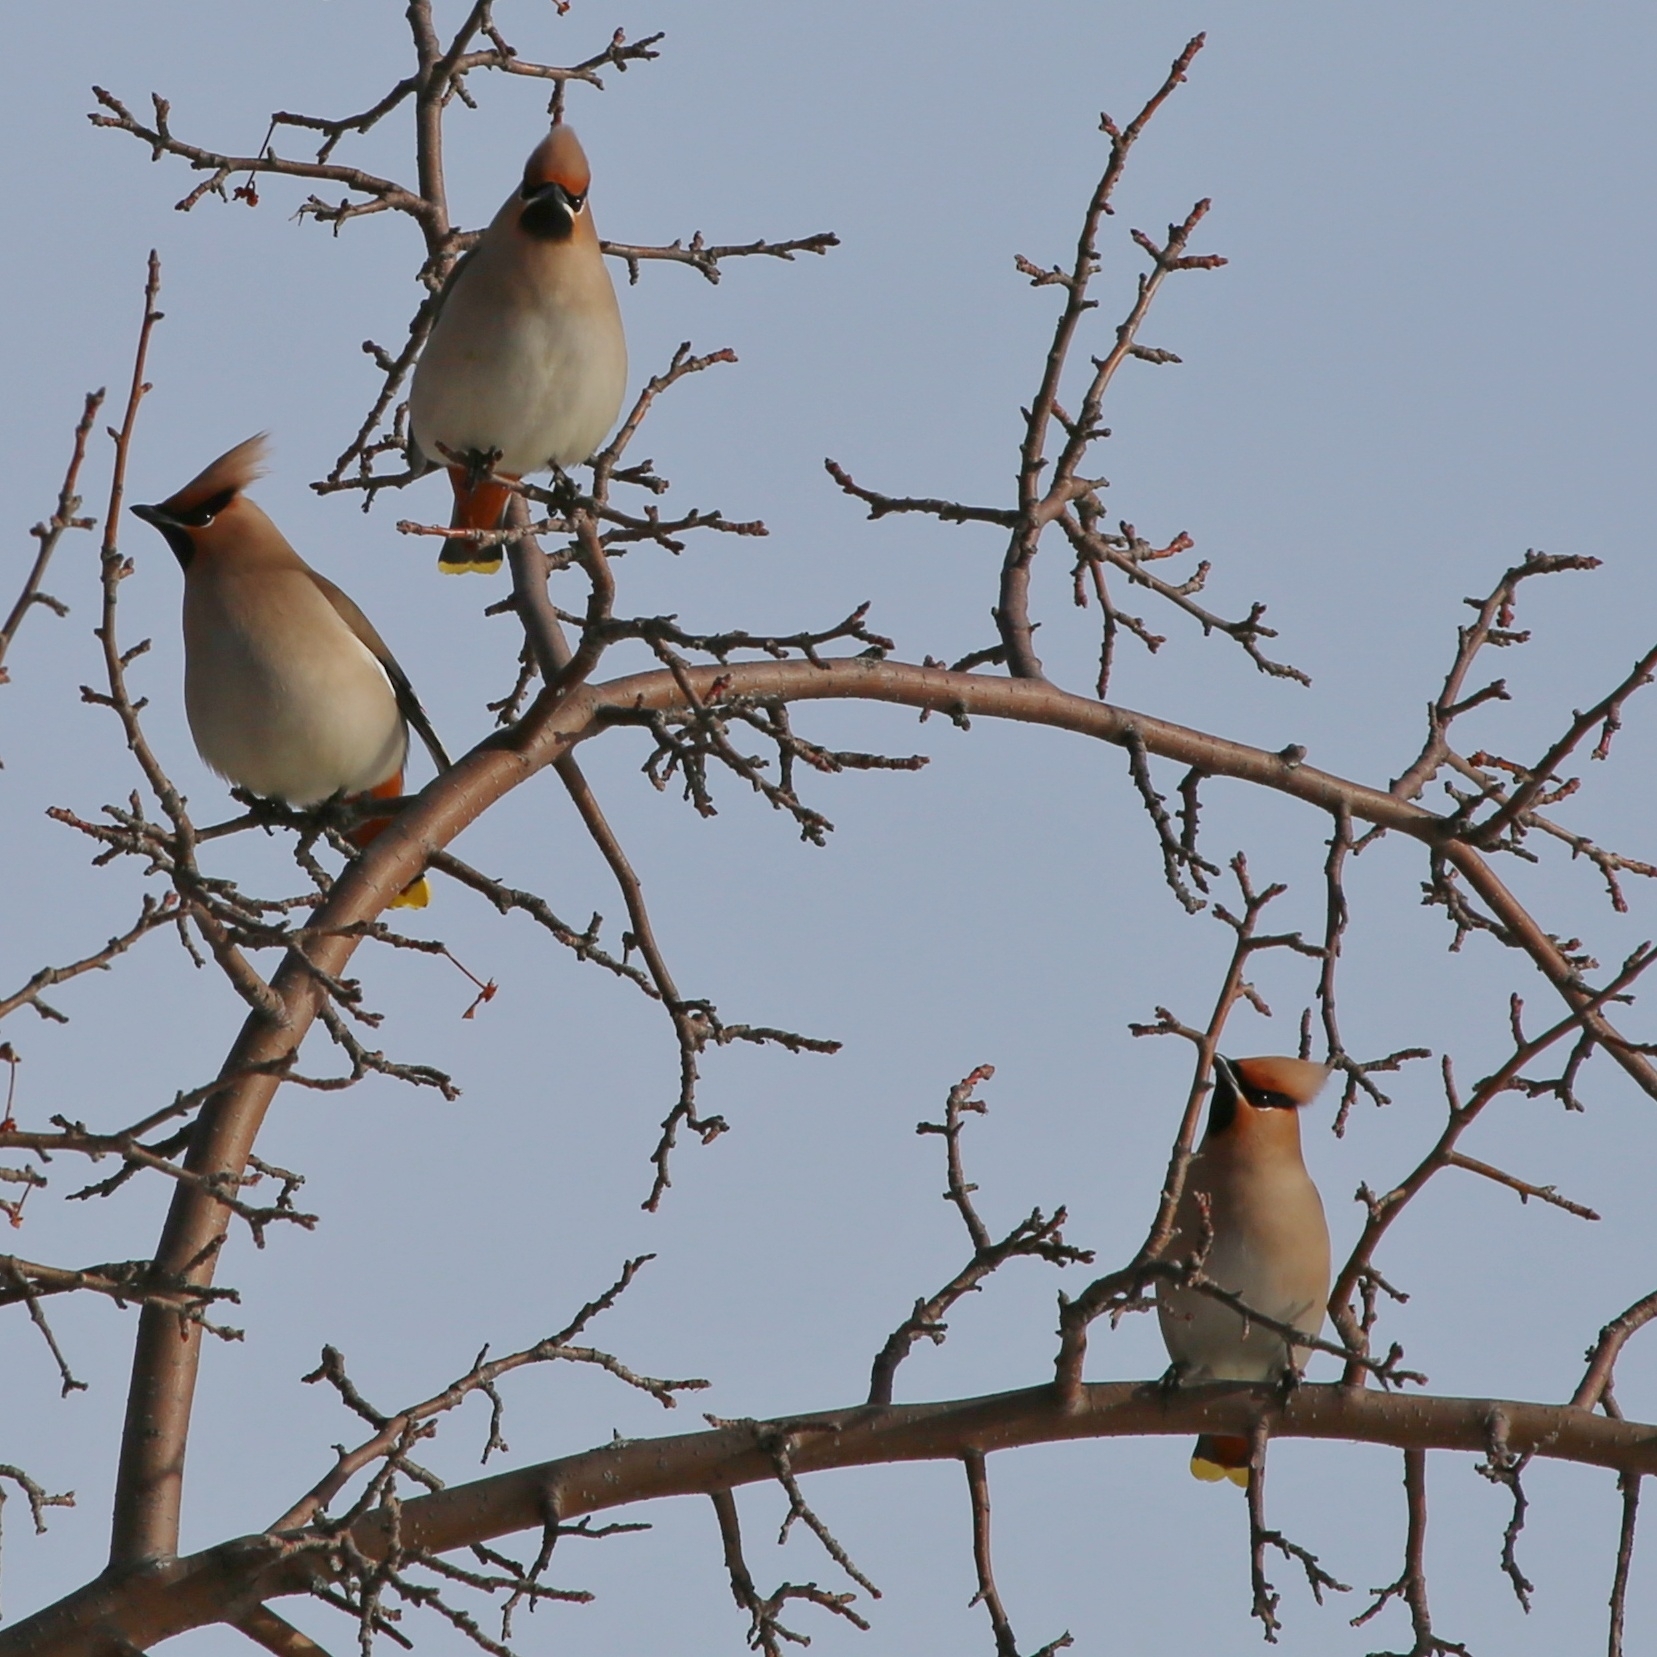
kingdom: Animalia
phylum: Chordata
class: Aves
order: Passeriformes
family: Bombycillidae
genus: Bombycilla
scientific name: Bombycilla garrulus
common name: Bohemian waxwing
